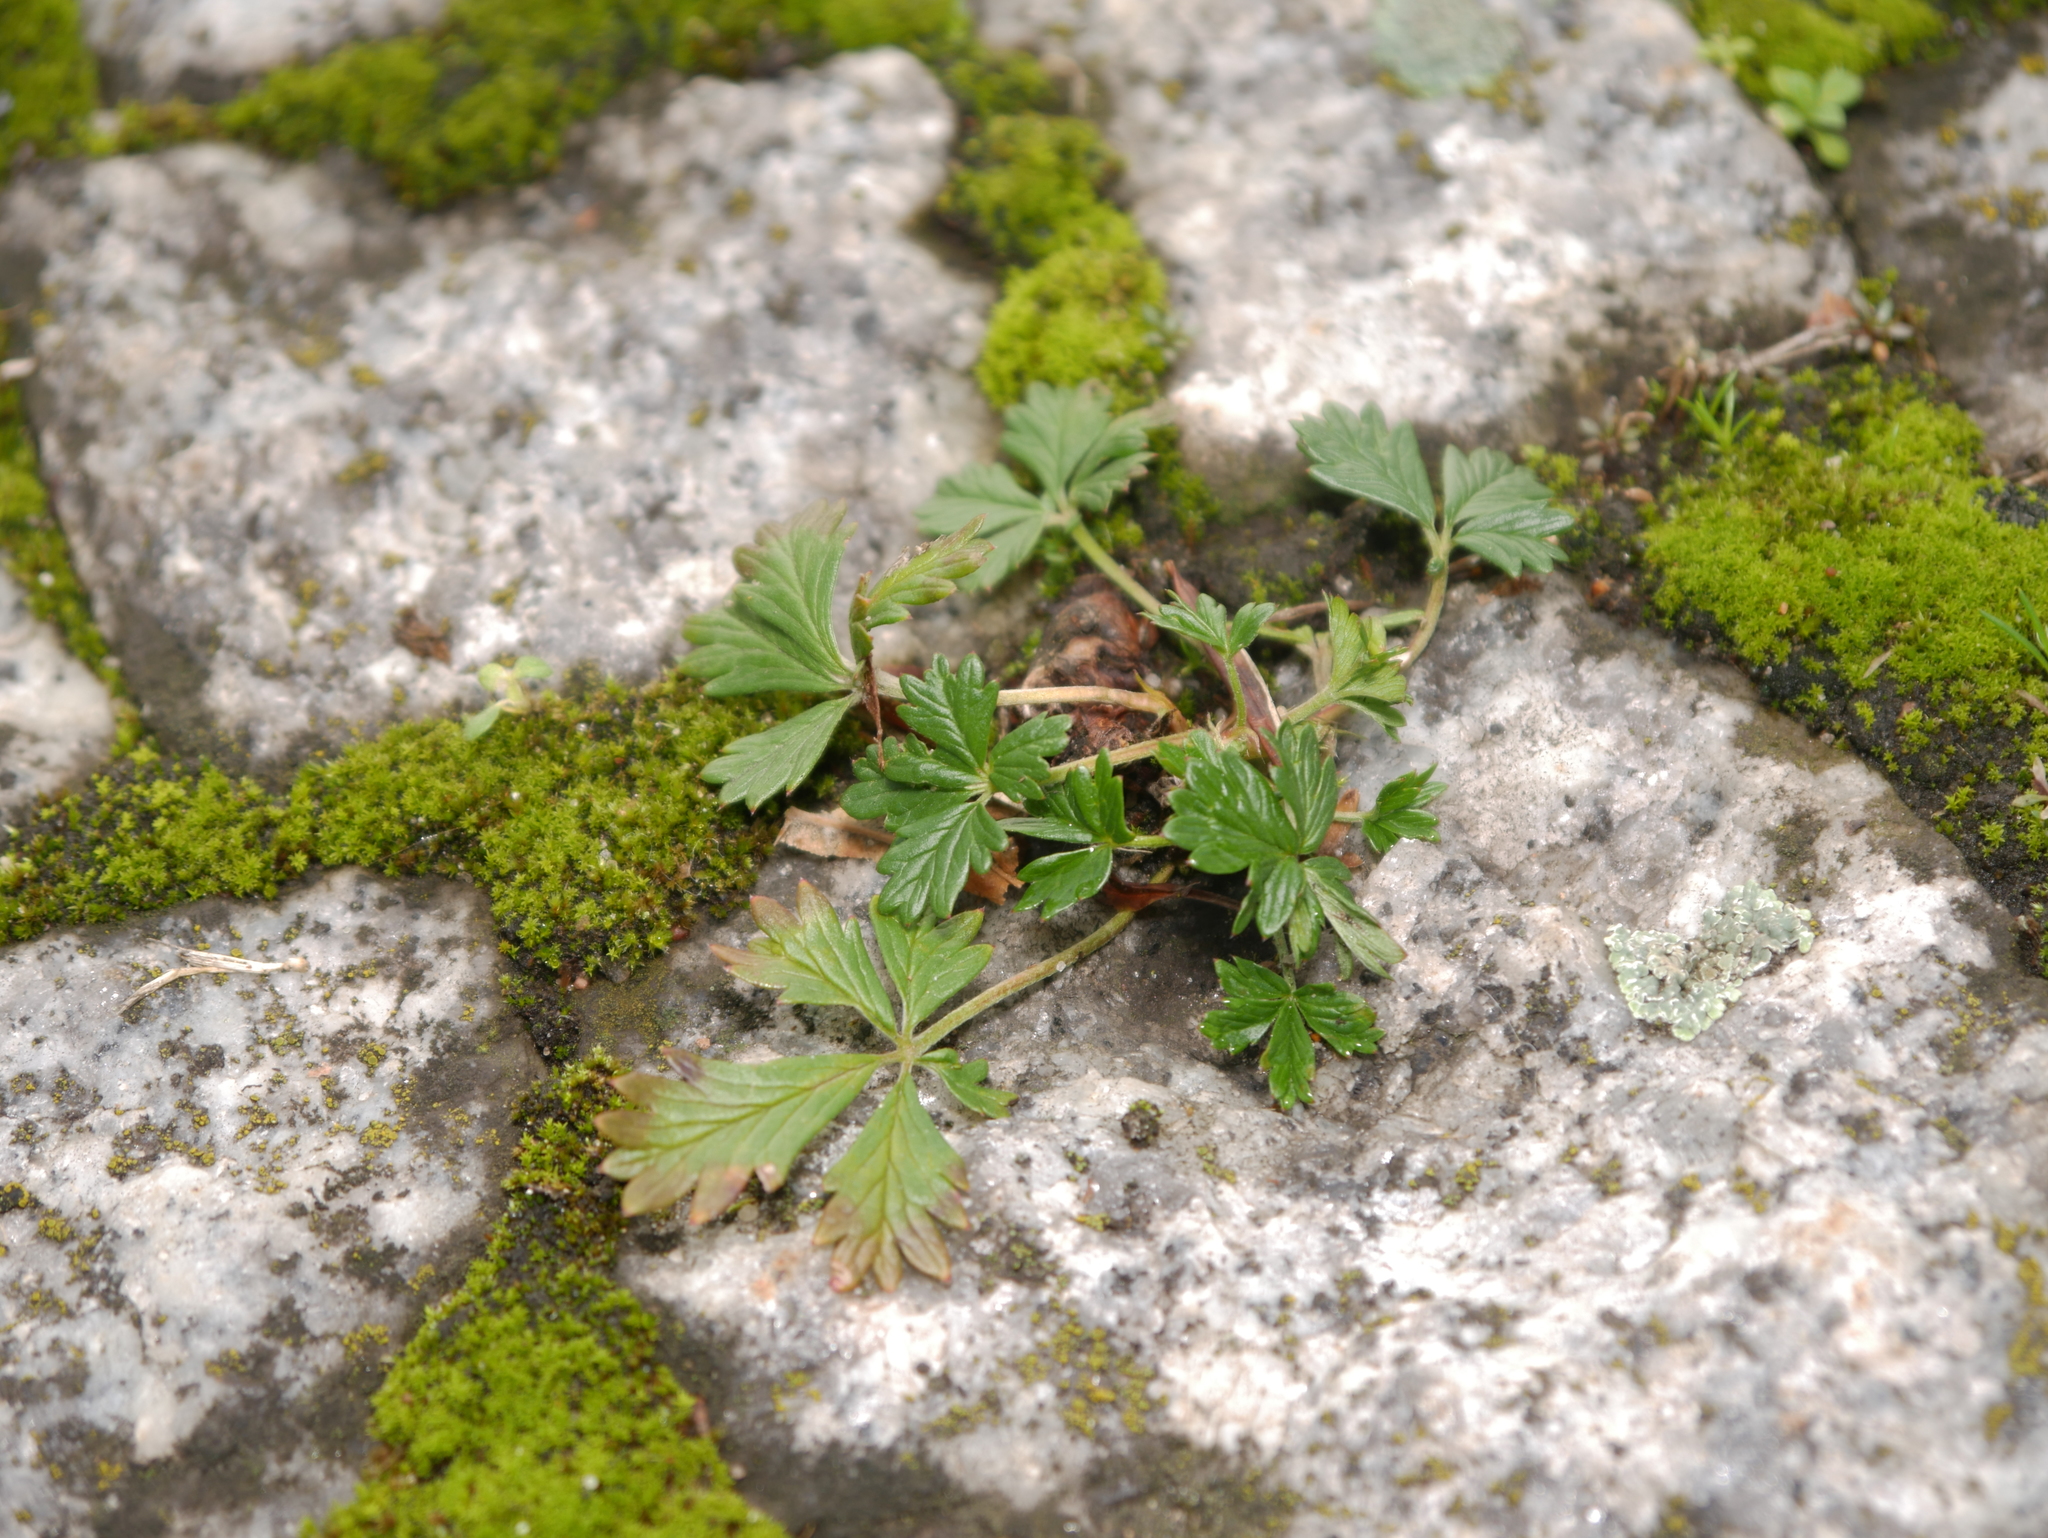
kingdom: Plantae
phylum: Tracheophyta
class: Magnoliopsida
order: Rosales
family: Rosaceae
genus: Potentilla
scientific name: Potentilla argentea
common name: Hoary cinquefoil
